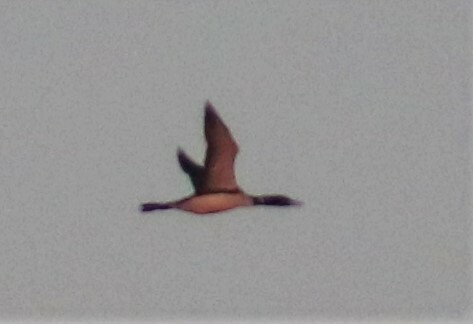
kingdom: Animalia
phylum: Chordata
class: Aves
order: Gaviiformes
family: Gaviidae
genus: Gavia
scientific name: Gavia immer
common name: Common loon
